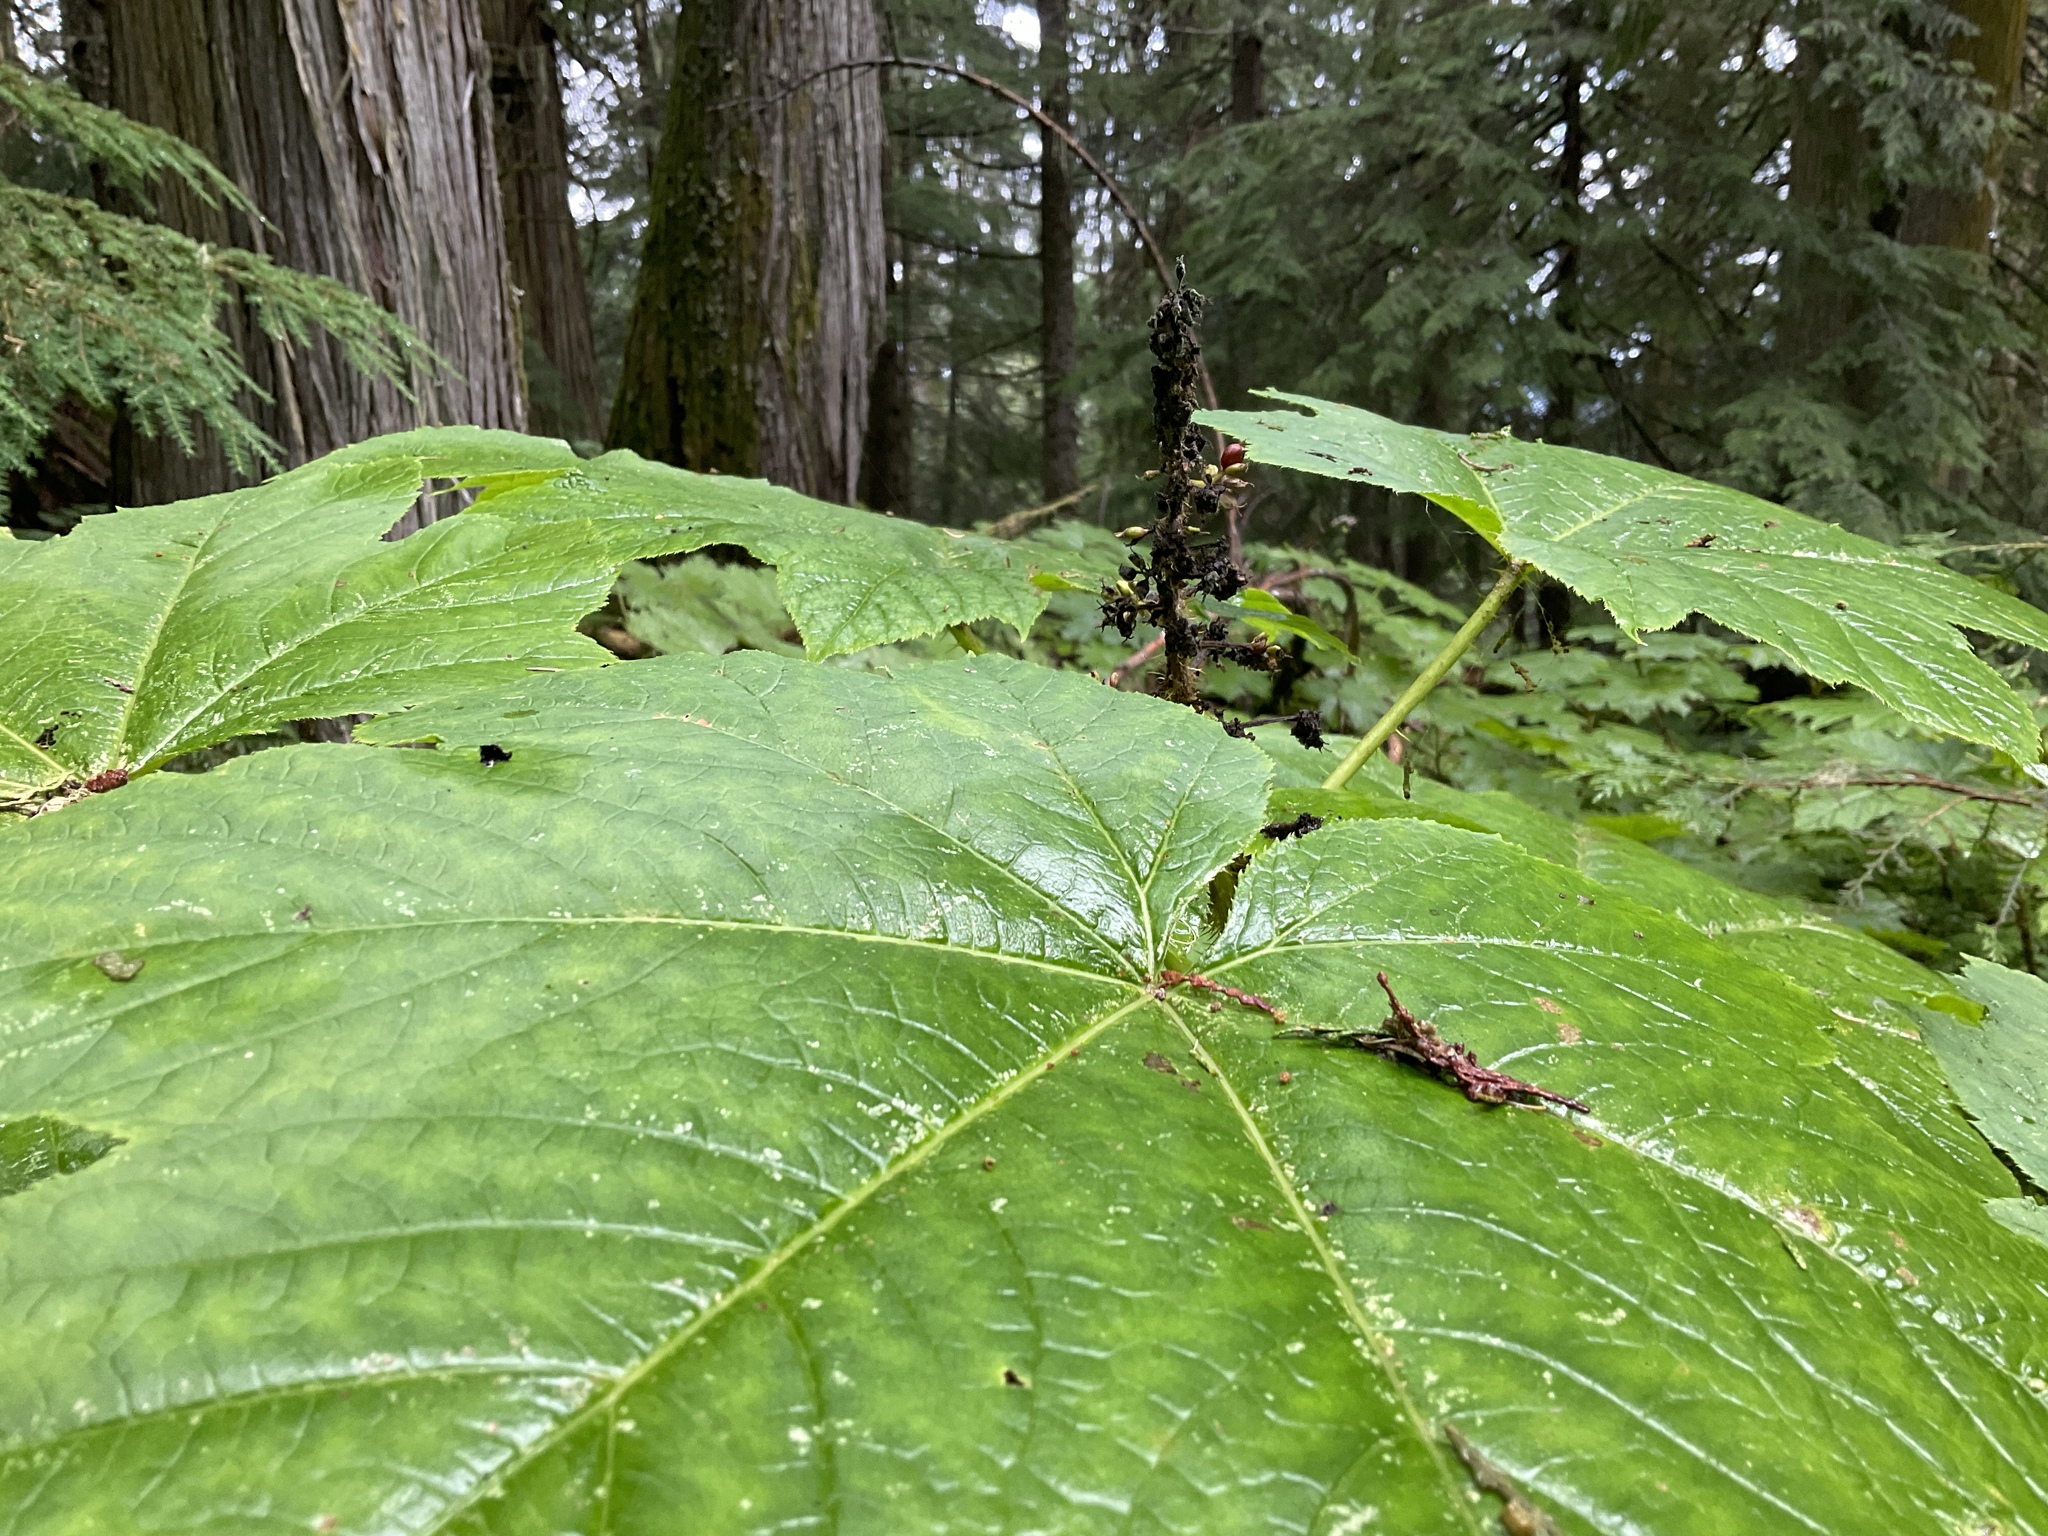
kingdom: Plantae
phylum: Tracheophyta
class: Magnoliopsida
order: Apiales
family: Araliaceae
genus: Oplopanax
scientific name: Oplopanax horridus
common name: Devil's walking-stick
